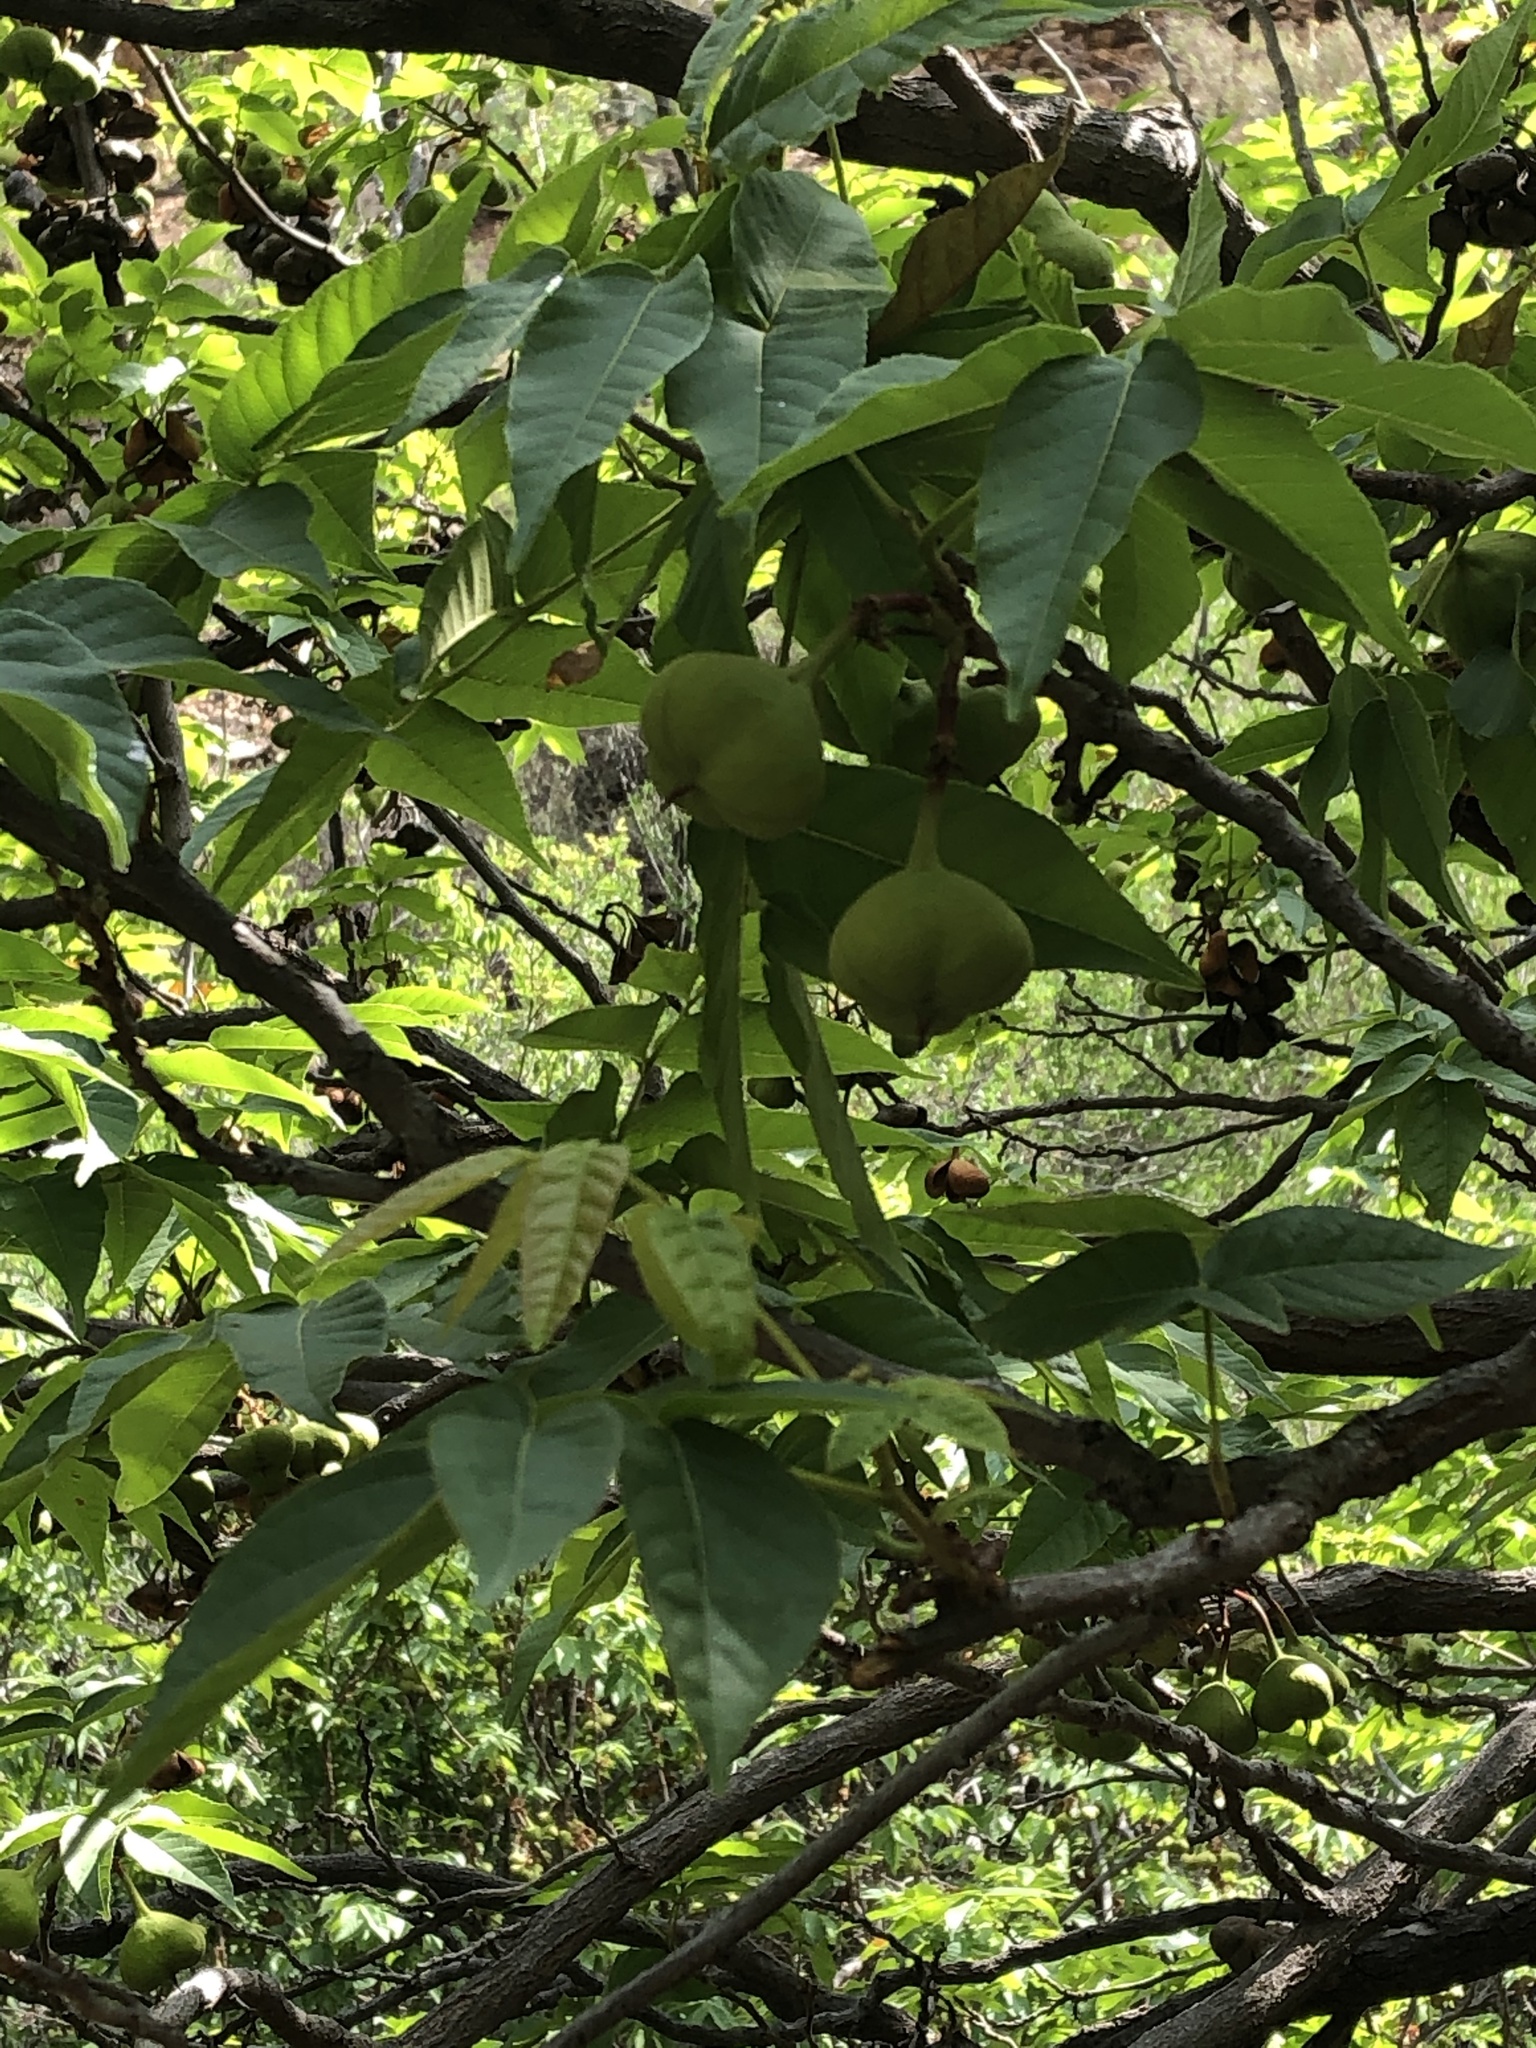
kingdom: Plantae
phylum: Tracheophyta
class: Magnoliopsida
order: Sapindales
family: Sapindaceae
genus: Ungnadia
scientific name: Ungnadia speciosa
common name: Texas-buckeye
